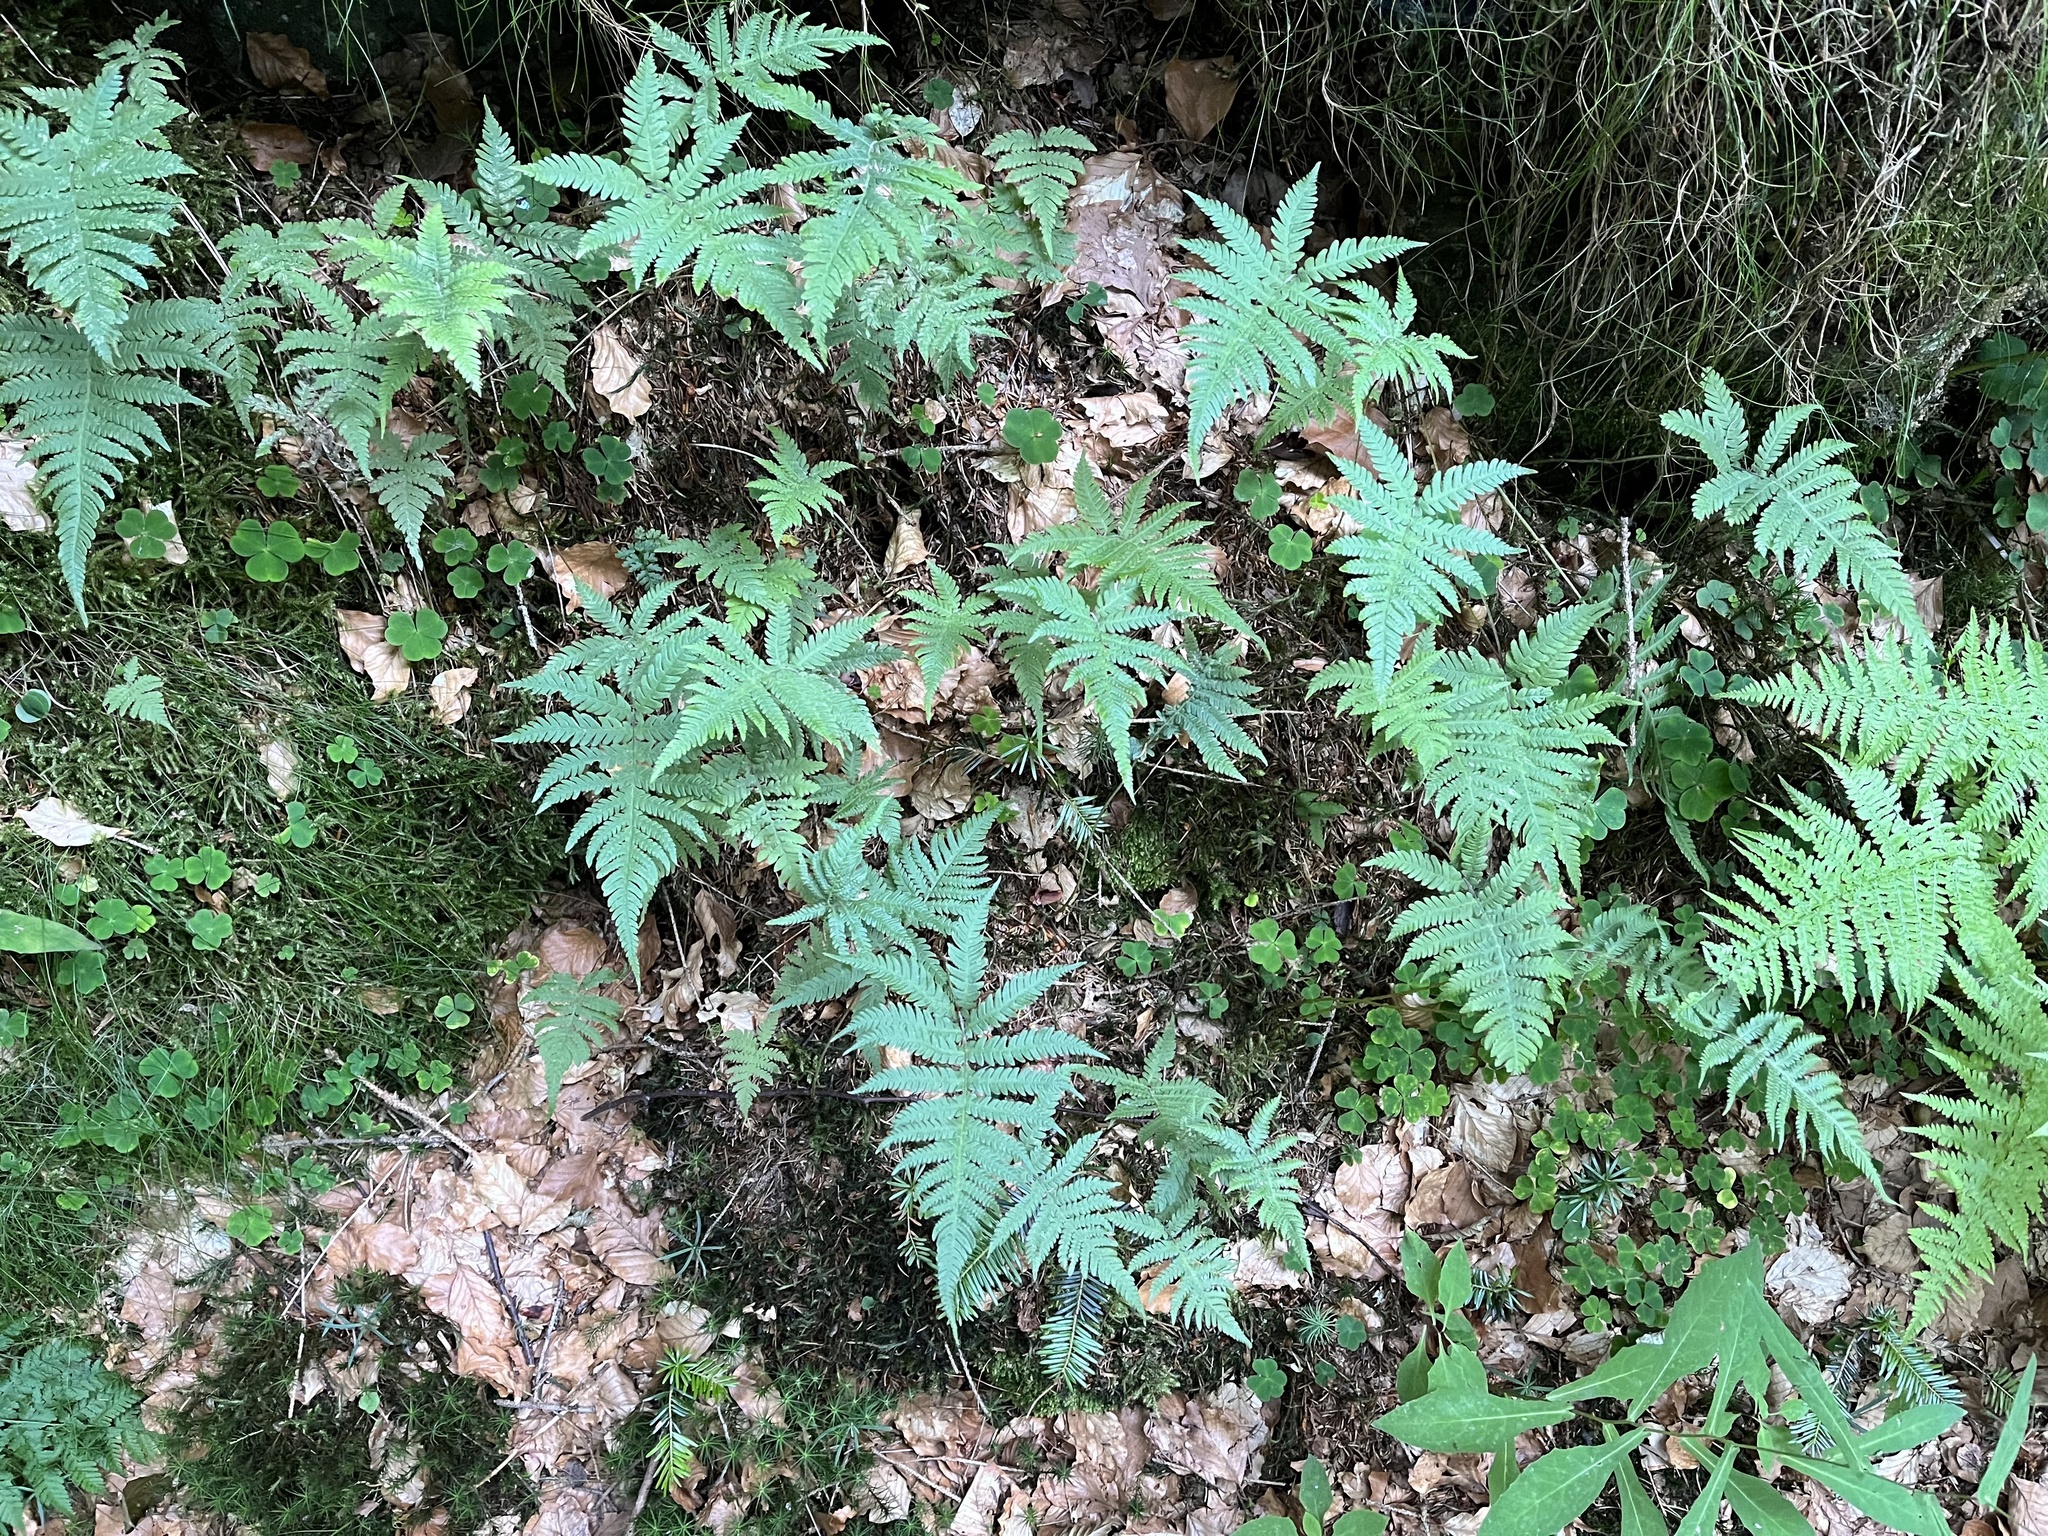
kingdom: Plantae
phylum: Tracheophyta
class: Polypodiopsida
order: Polypodiales
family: Thelypteridaceae
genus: Phegopteris
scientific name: Phegopteris connectilis
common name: Beech fern
